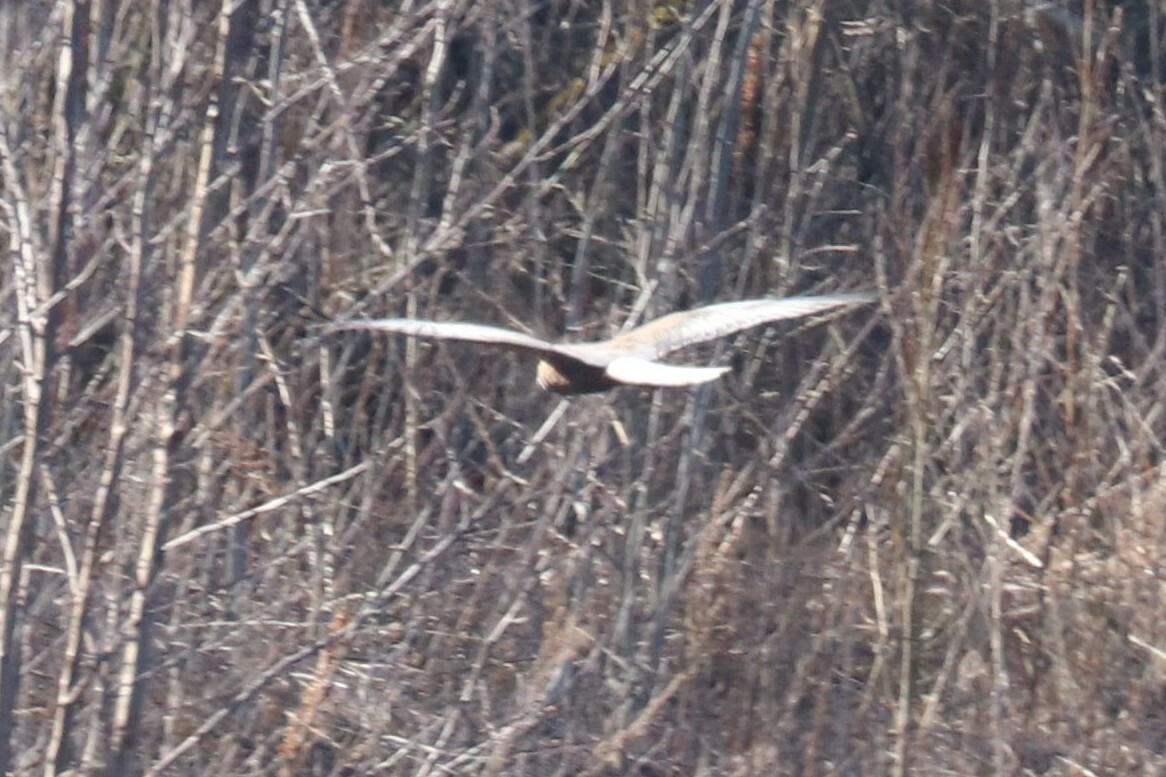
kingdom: Animalia
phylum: Chordata
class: Aves
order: Accipitriformes
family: Accipitridae
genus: Circus
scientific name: Circus aeruginosus
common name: Western marsh harrier
